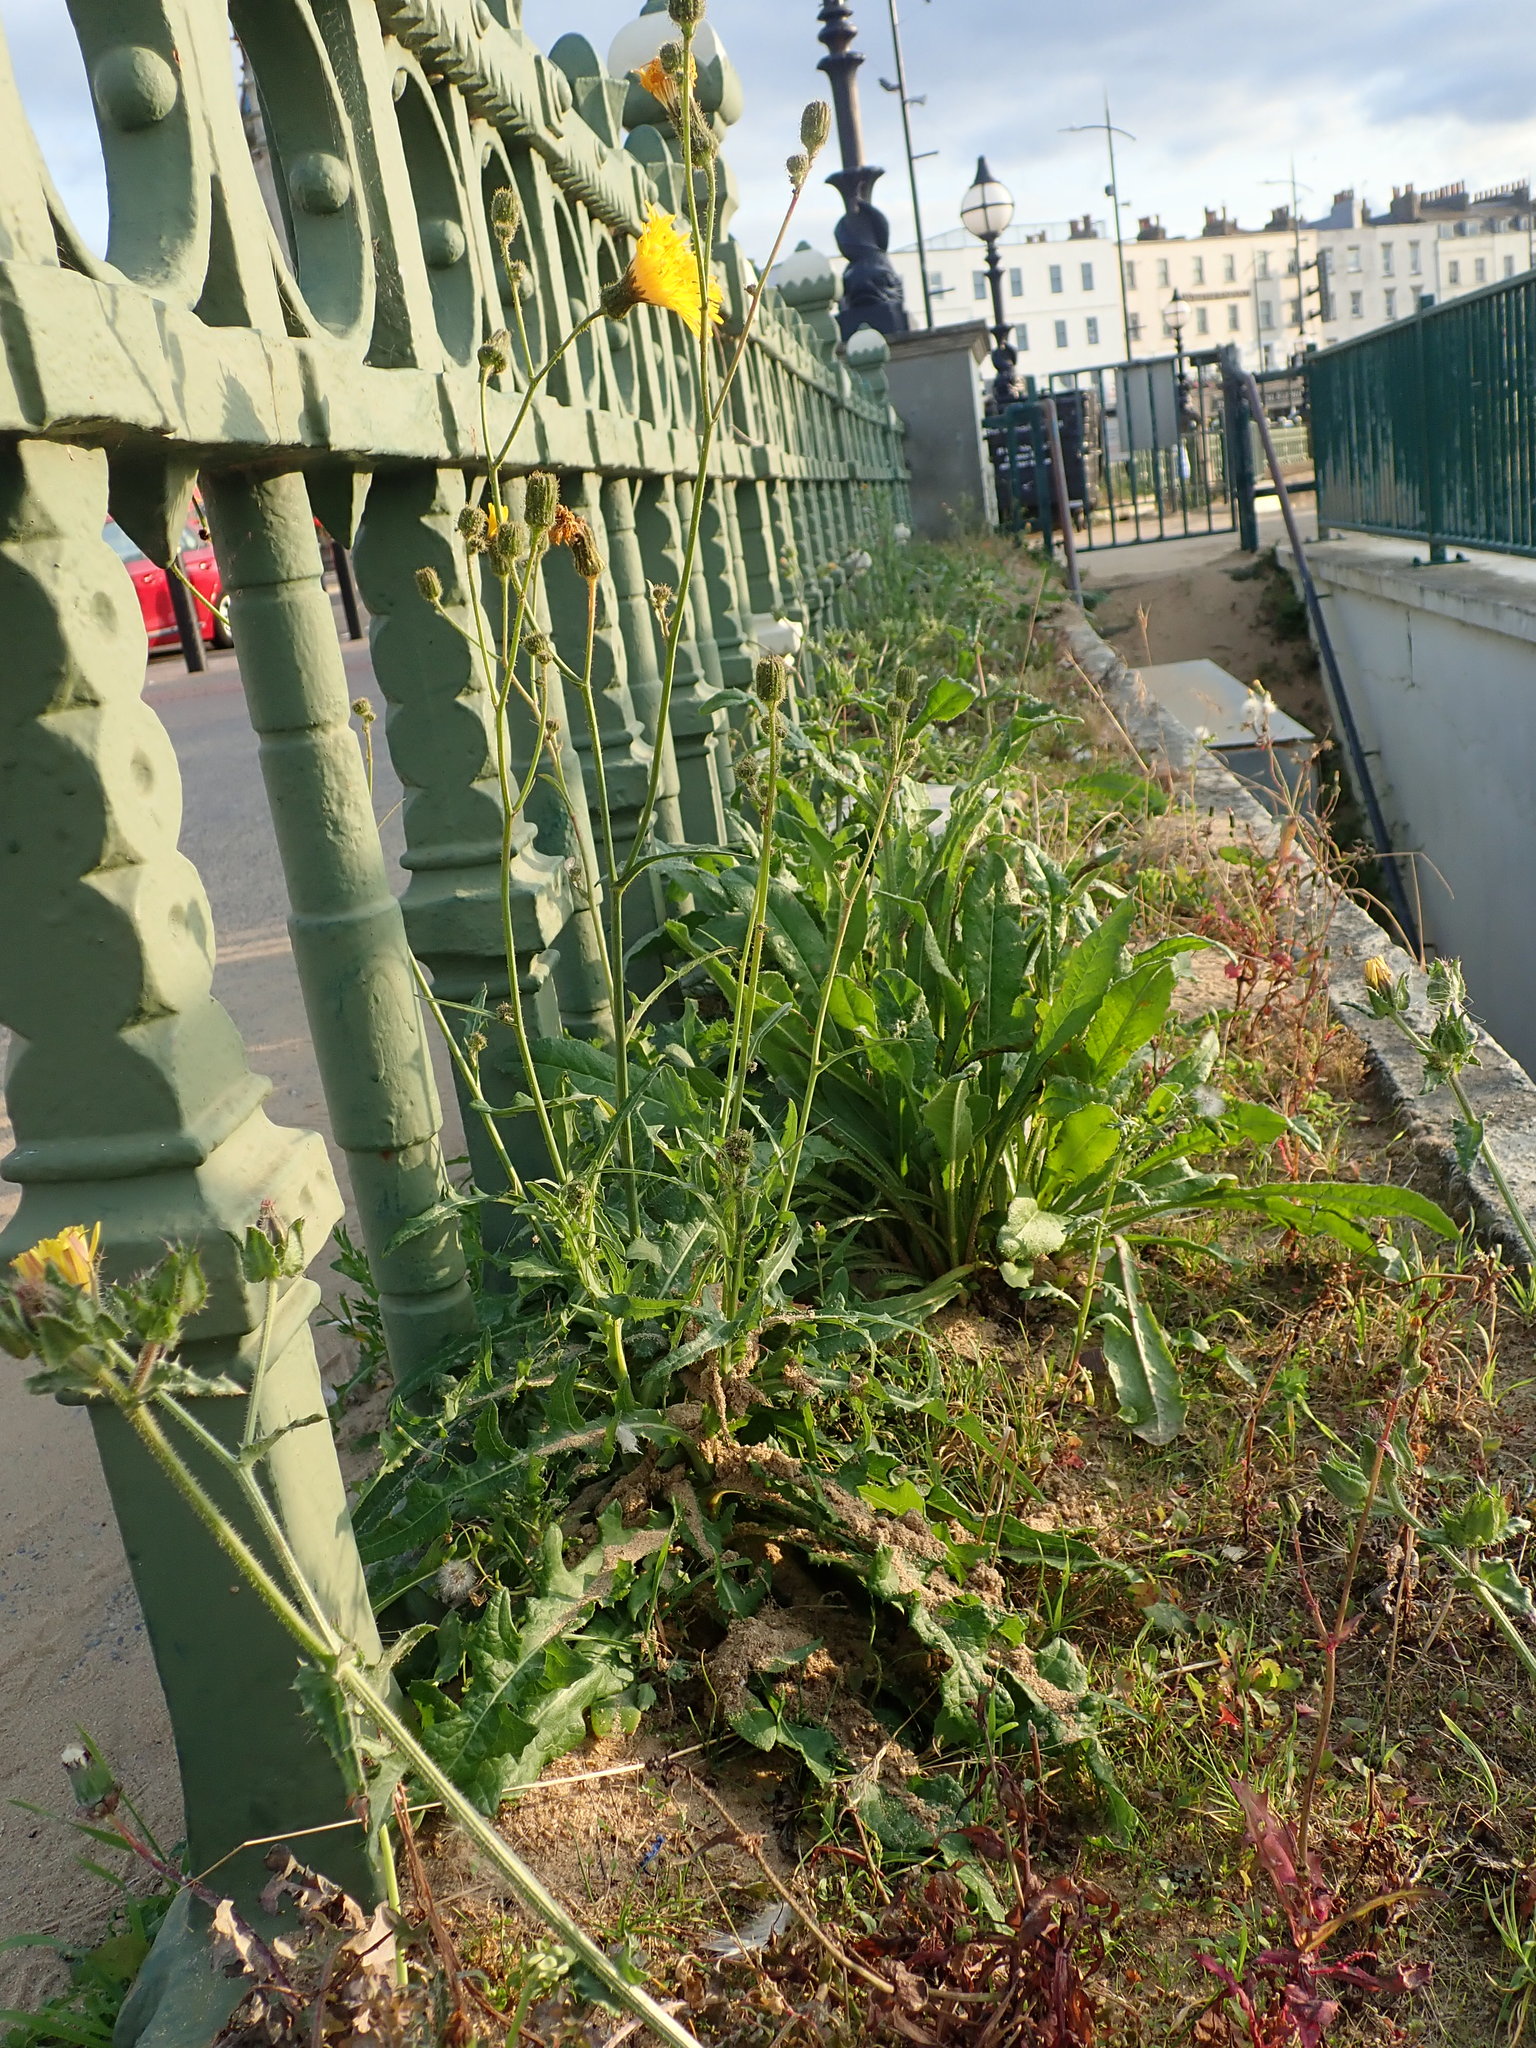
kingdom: Plantae
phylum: Tracheophyta
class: Magnoliopsida
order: Asterales
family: Asteraceae
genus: Sonchus
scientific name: Sonchus arvensis
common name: Perennial sow-thistle
